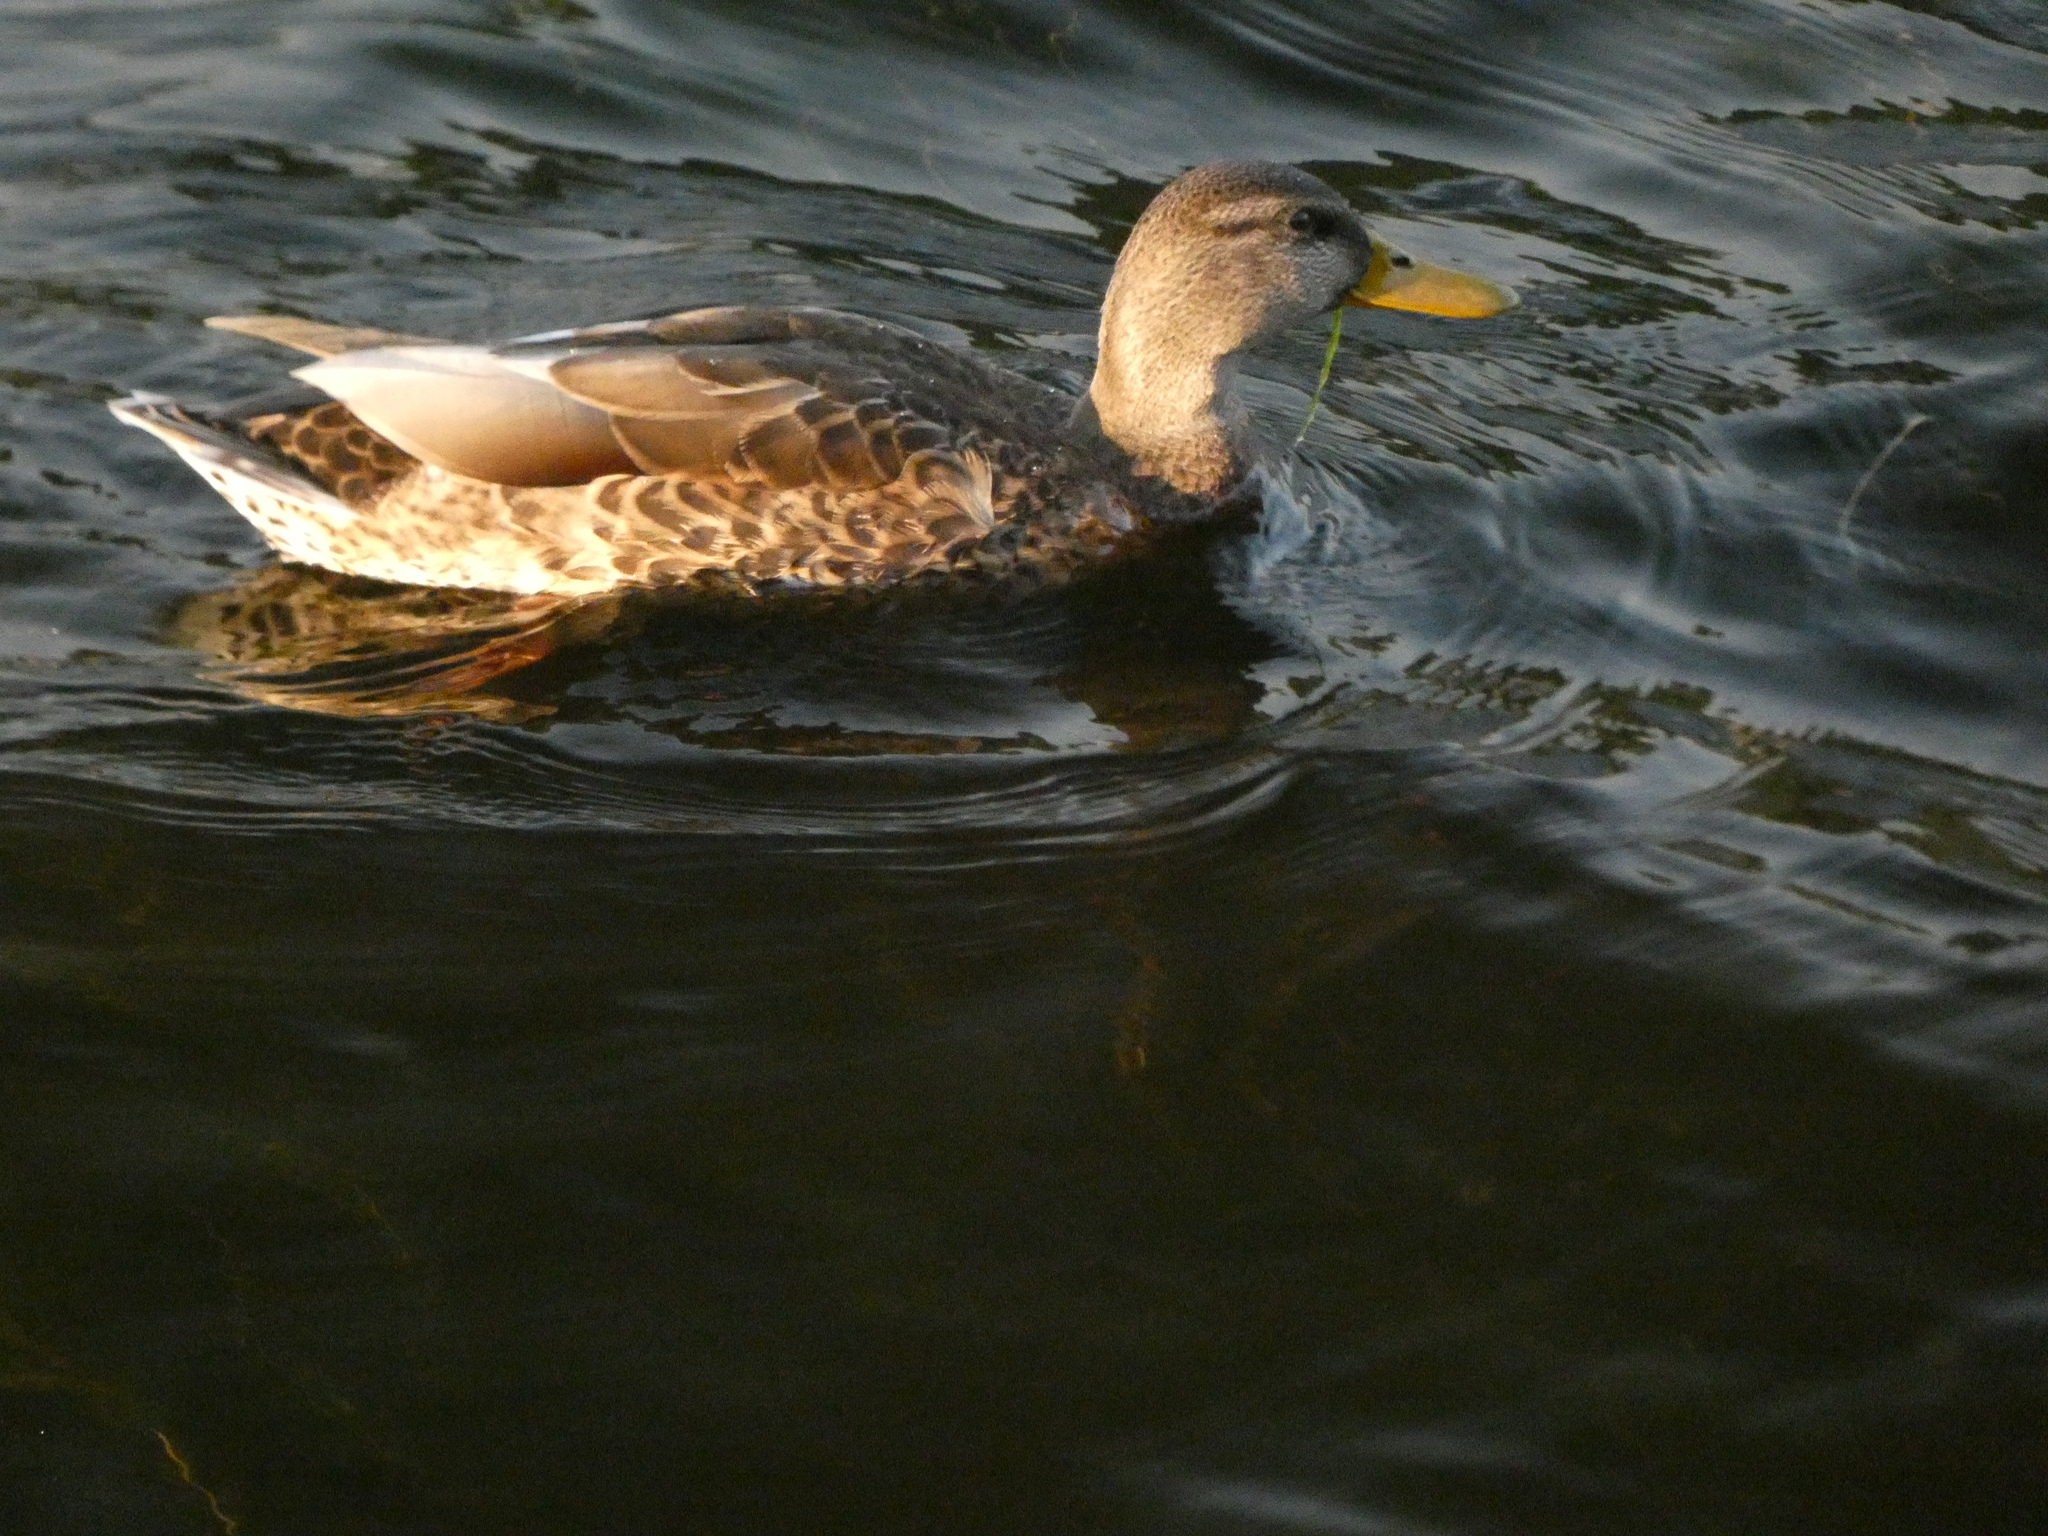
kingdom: Animalia
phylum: Chordata
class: Aves
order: Anseriformes
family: Anatidae
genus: Anas
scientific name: Anas platyrhynchos
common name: Mallard
